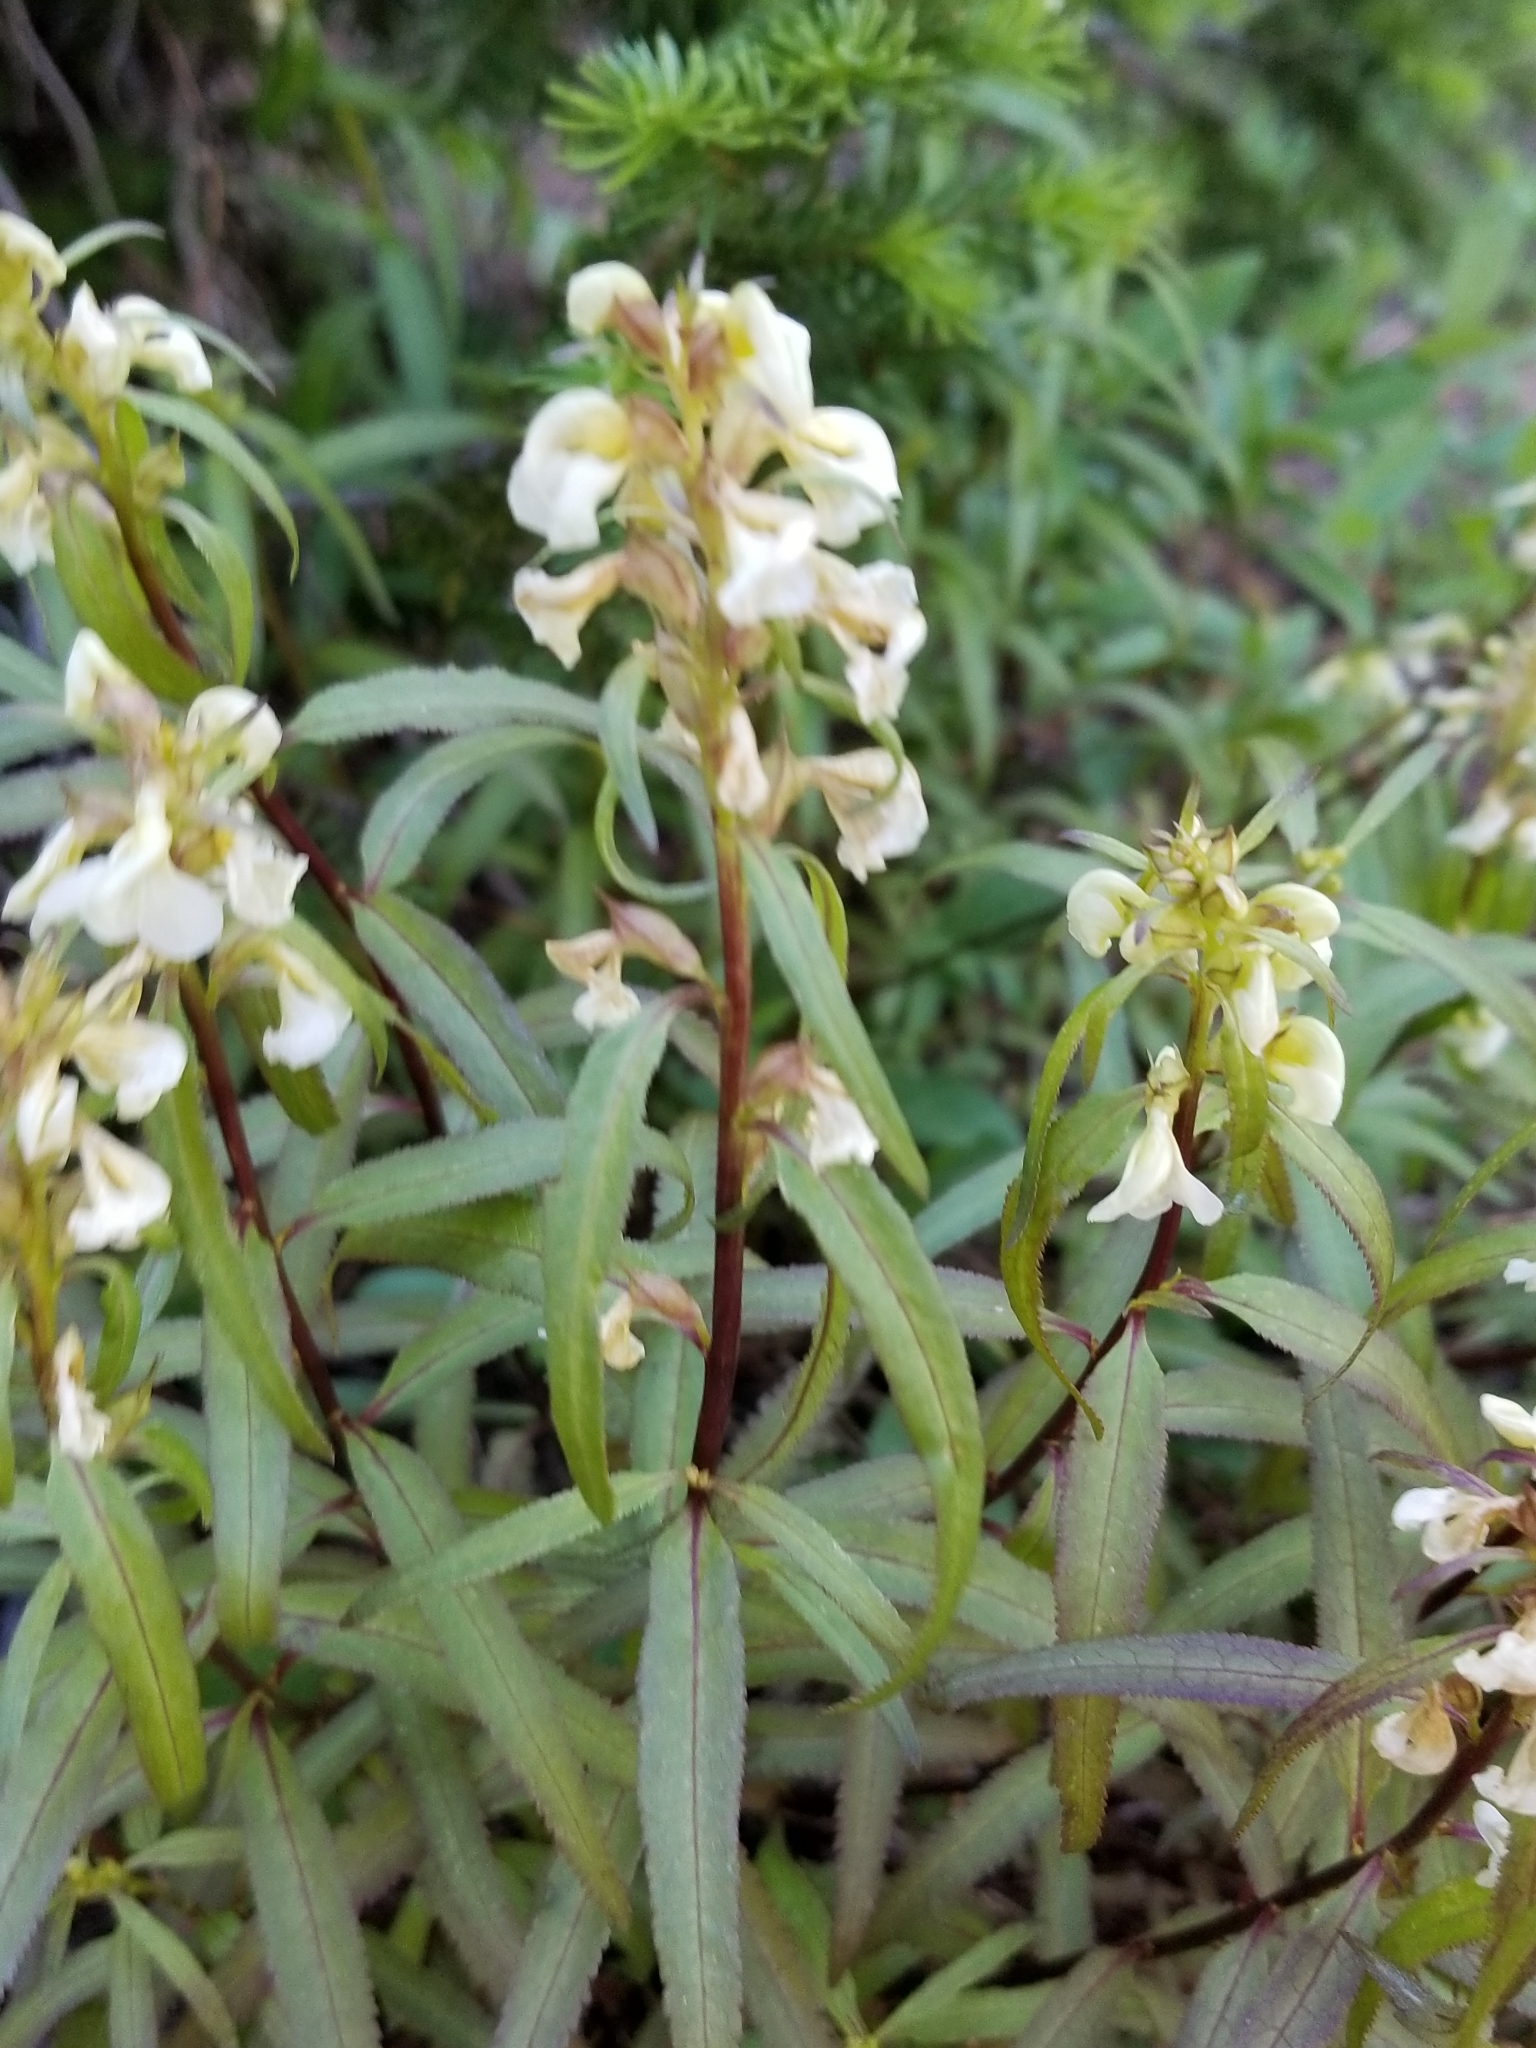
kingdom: Plantae
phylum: Tracheophyta
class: Magnoliopsida
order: Lamiales
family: Orobanchaceae
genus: Pedicularis
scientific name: Pedicularis racemosa
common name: Leafy lousewort
